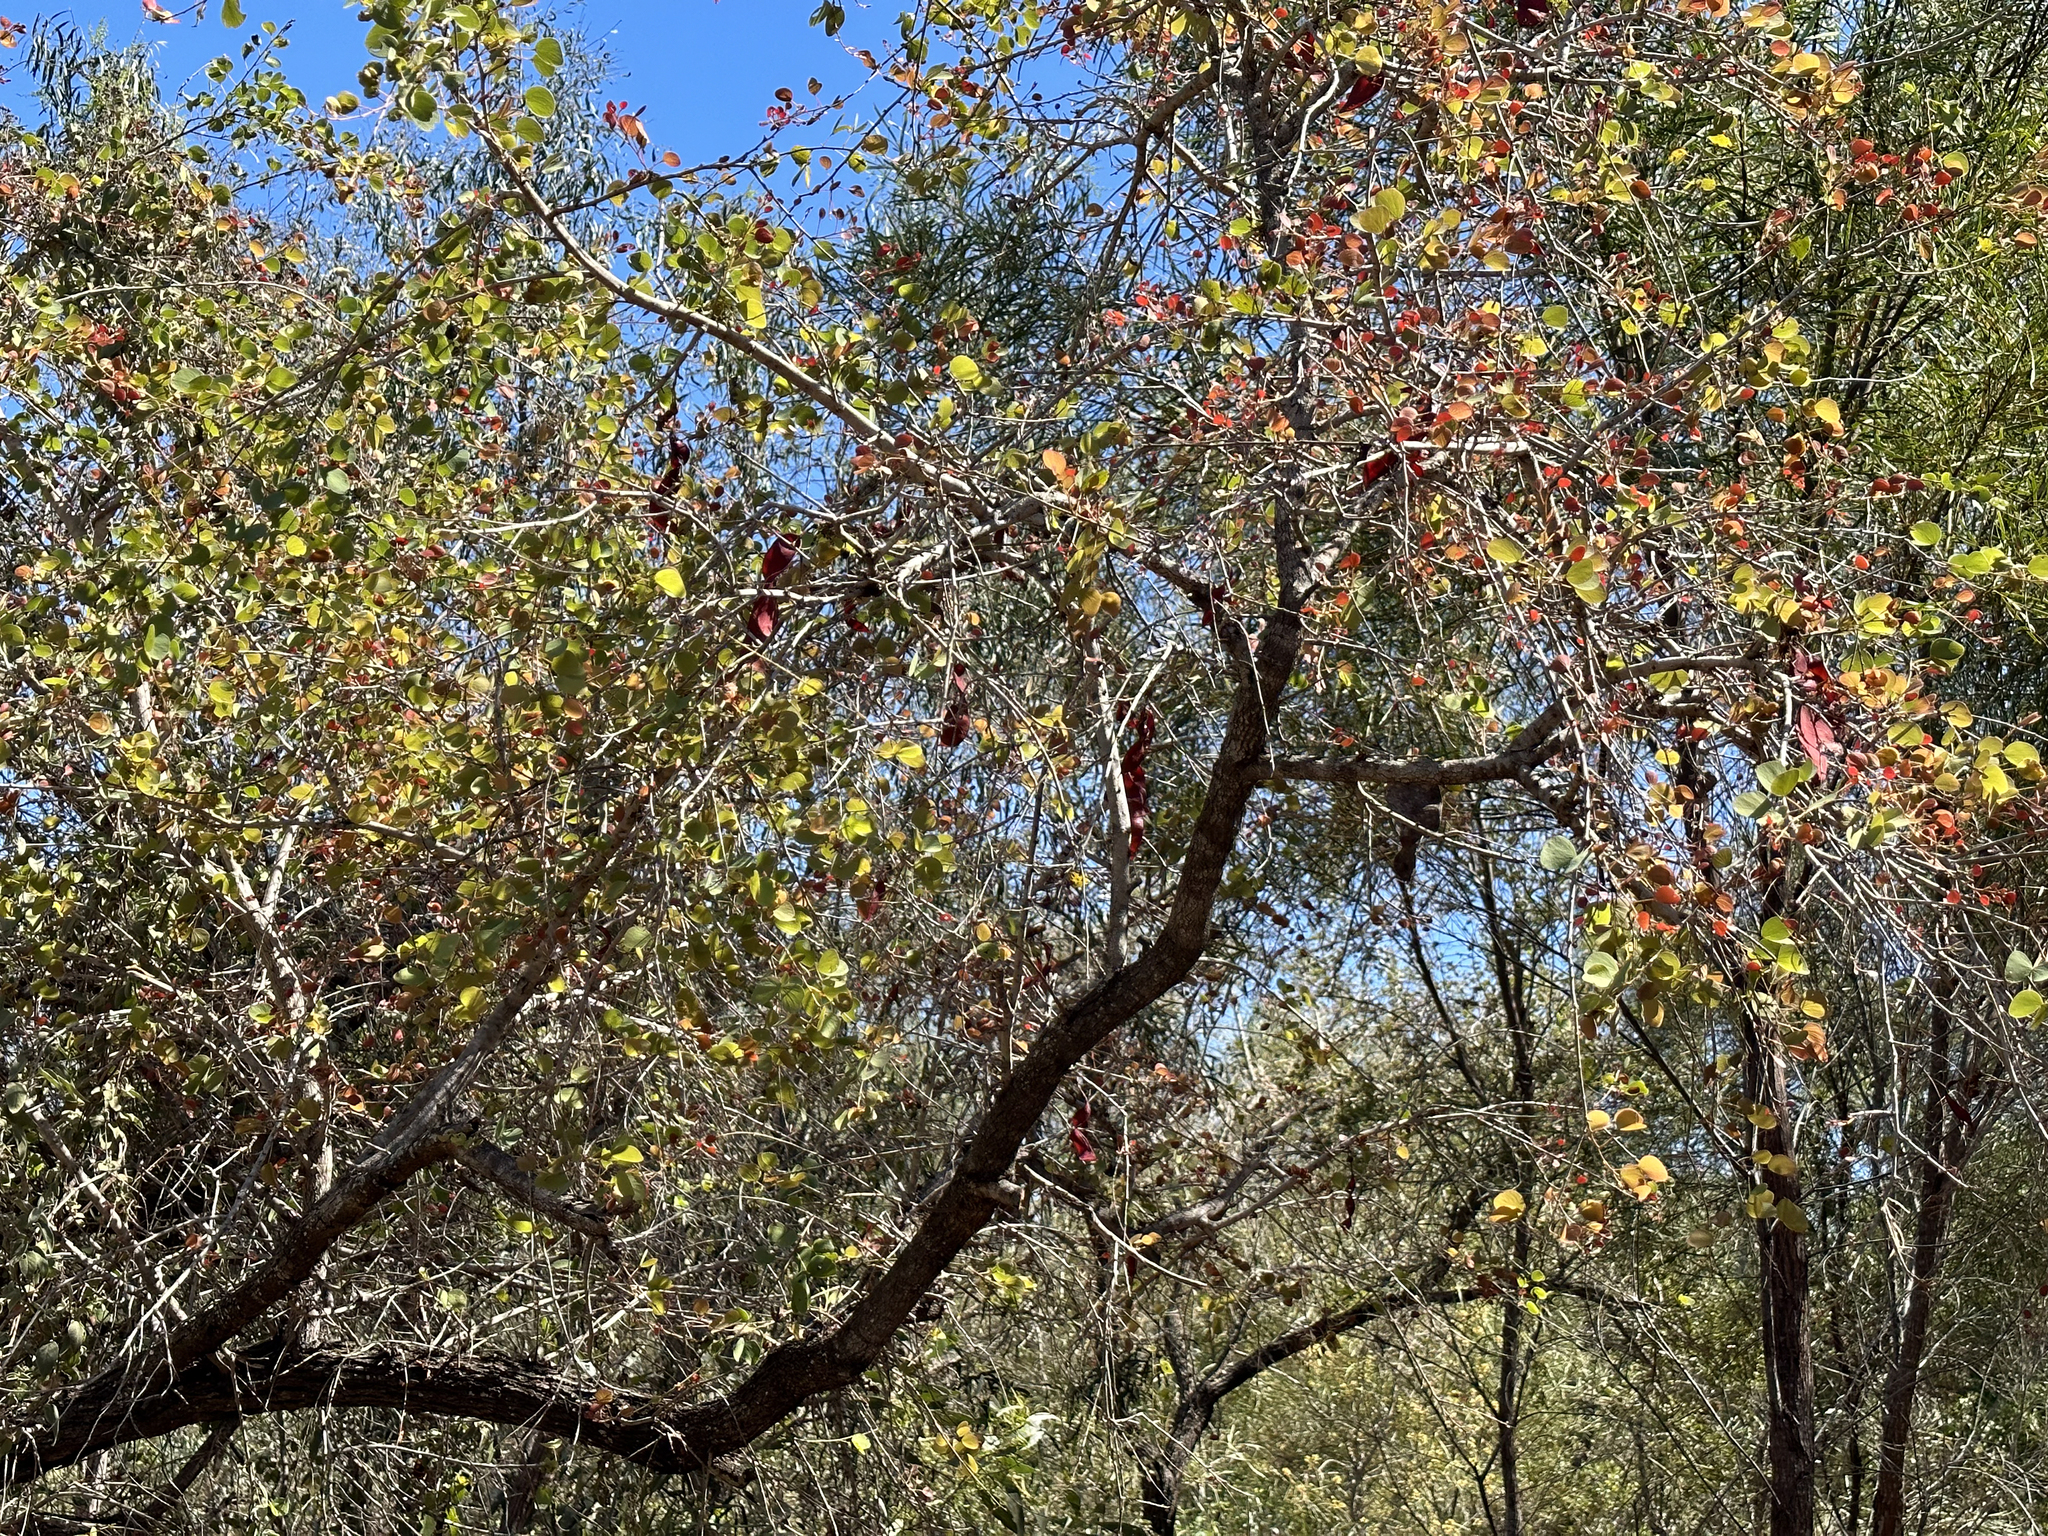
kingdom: Plantae
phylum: Tracheophyta
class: Magnoliopsida
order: Fabales
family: Fabaceae
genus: Lysiphyllum
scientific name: Lysiphyllum cunninghamii
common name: Kimberley bauhinia
